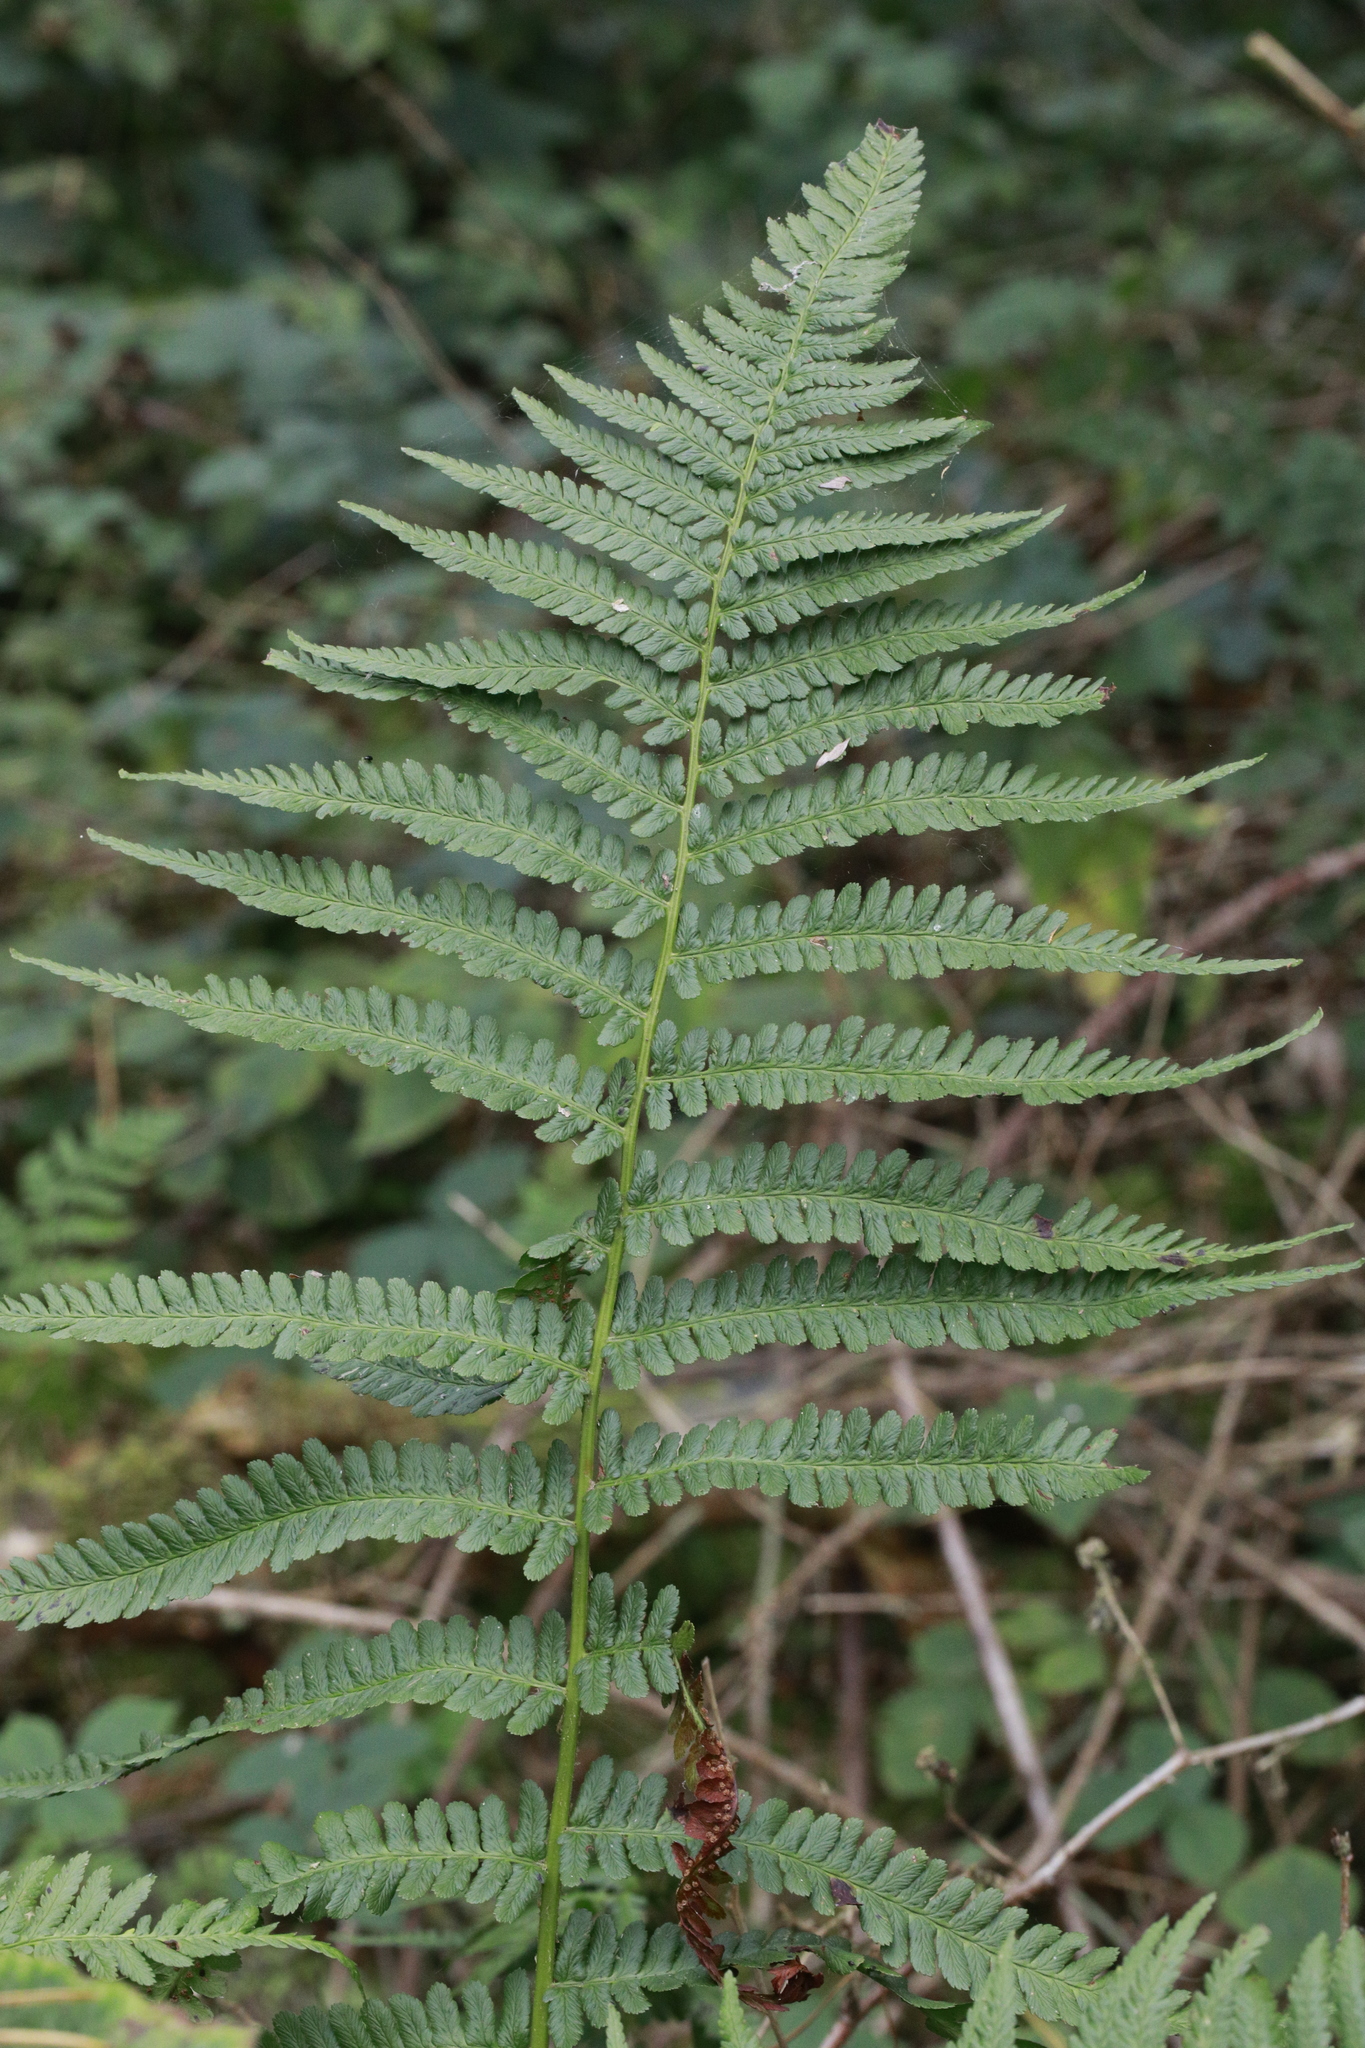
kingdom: Plantae
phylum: Tracheophyta
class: Polypodiopsida
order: Polypodiales
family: Dryopteridaceae
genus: Dryopteris
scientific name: Dryopteris filix-mas
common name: Male fern
